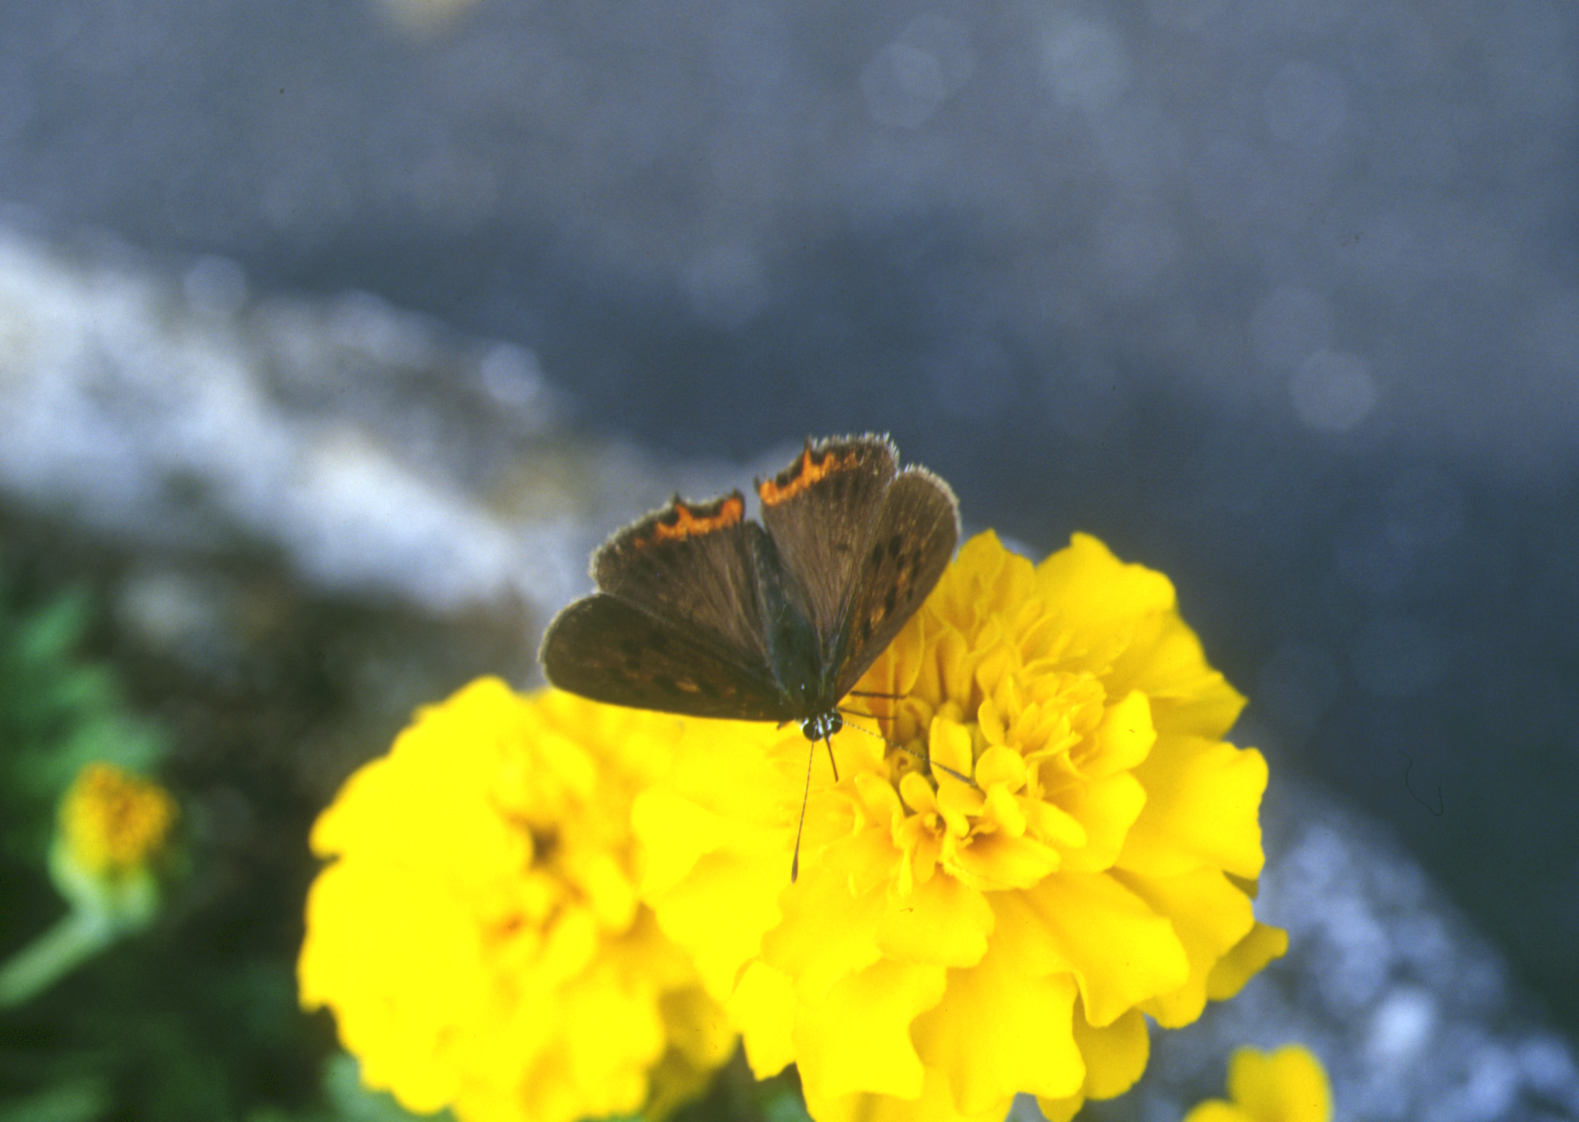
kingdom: Animalia
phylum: Arthropoda
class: Insecta
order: Lepidoptera
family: Lycaenidae
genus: Lycaena
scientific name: Lycaena phlaeas
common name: Small copper
